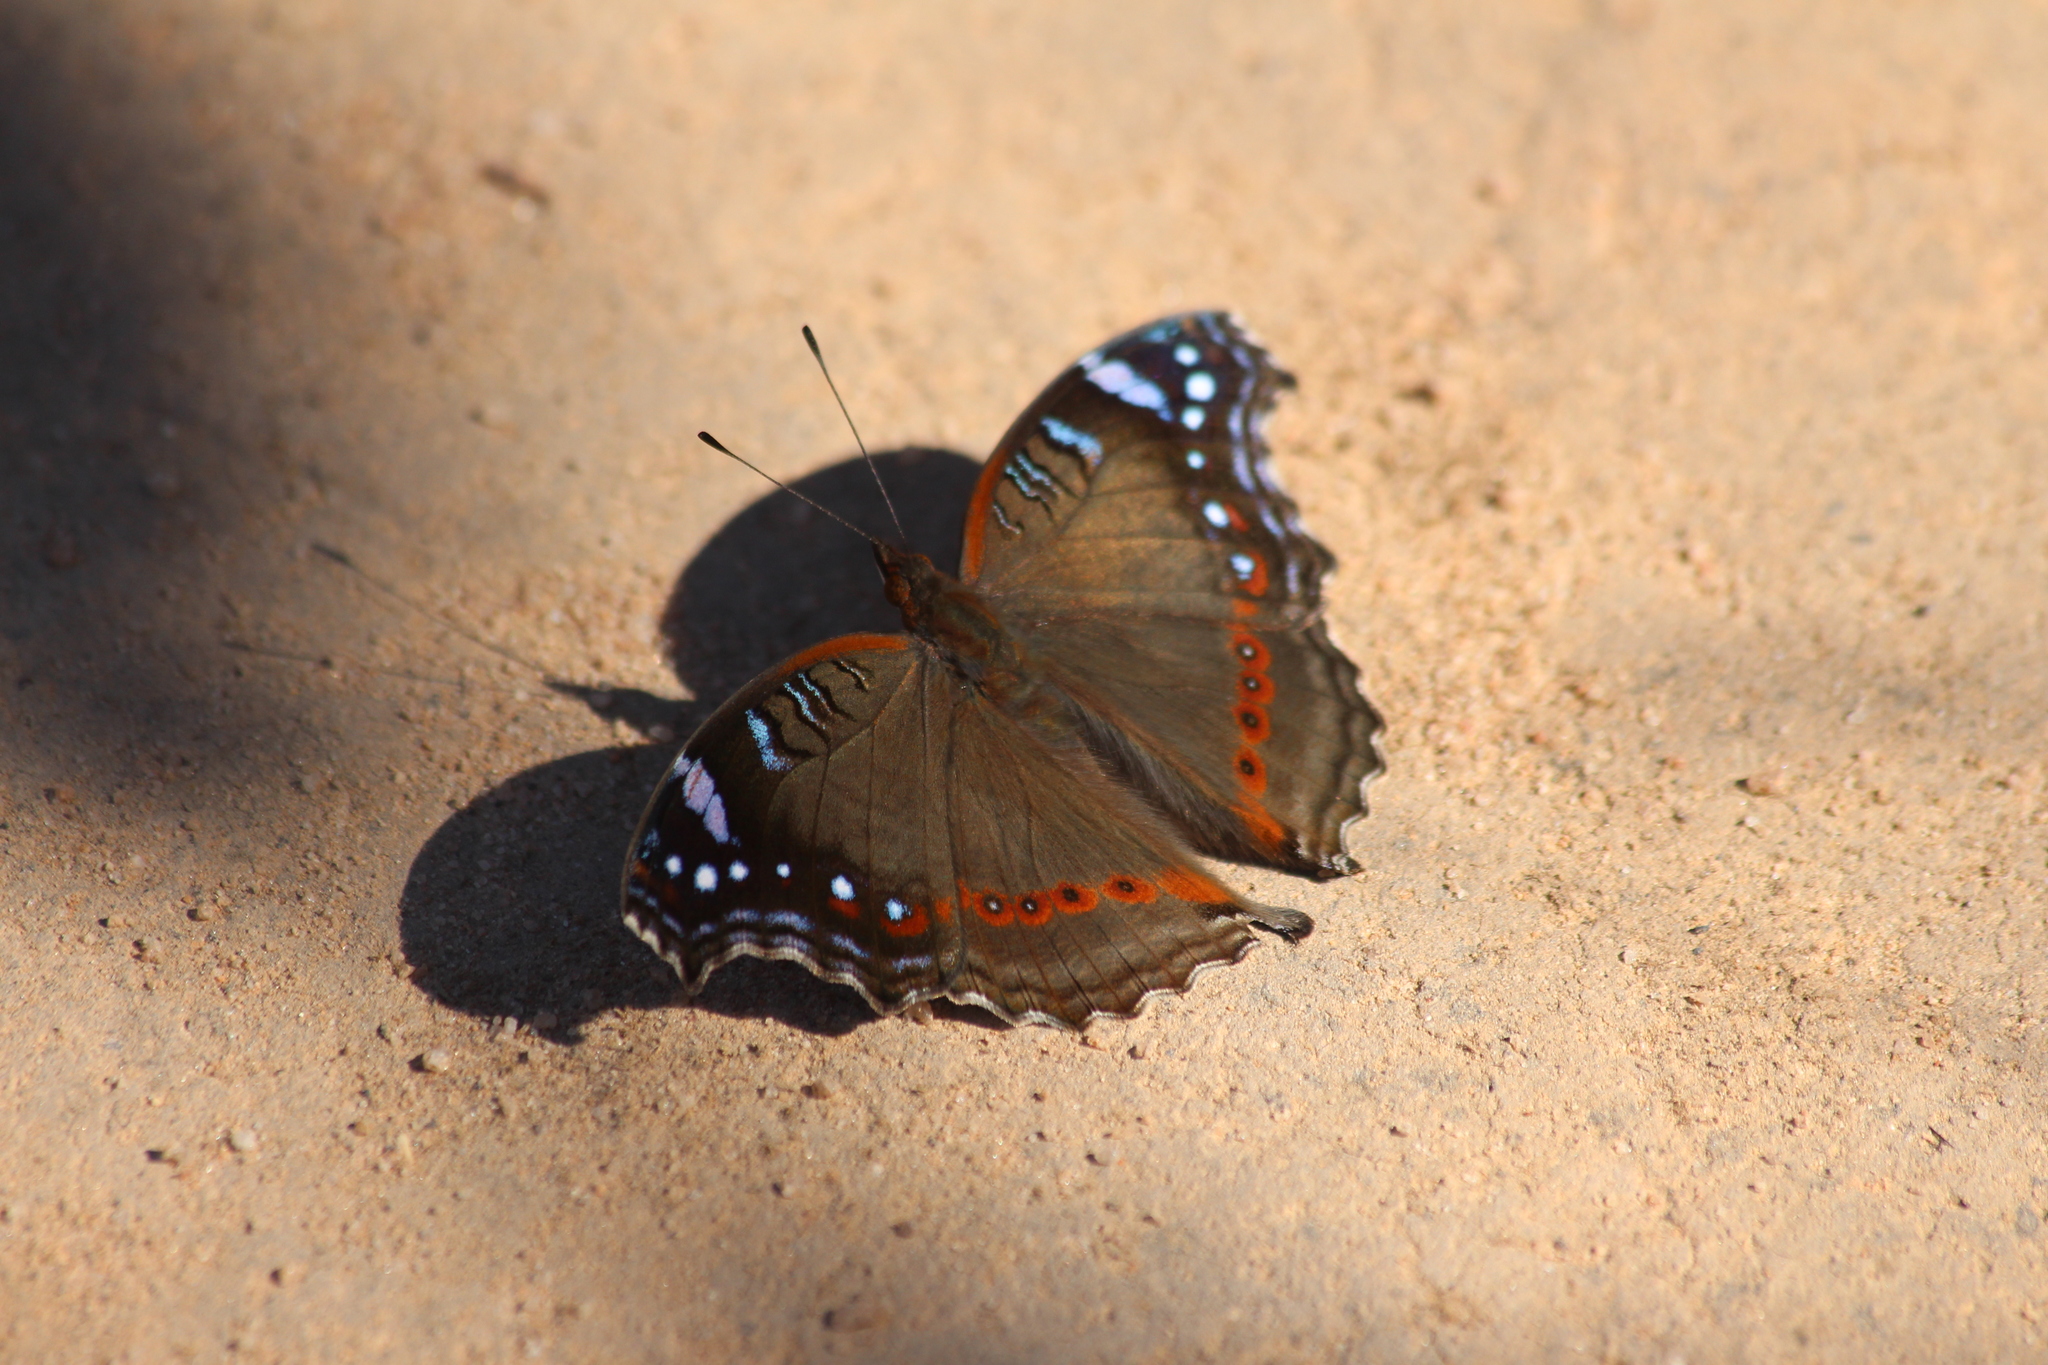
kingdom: Animalia
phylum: Arthropoda
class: Insecta
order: Lepidoptera
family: Nymphalidae
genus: Junonia
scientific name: Junonia archesia
